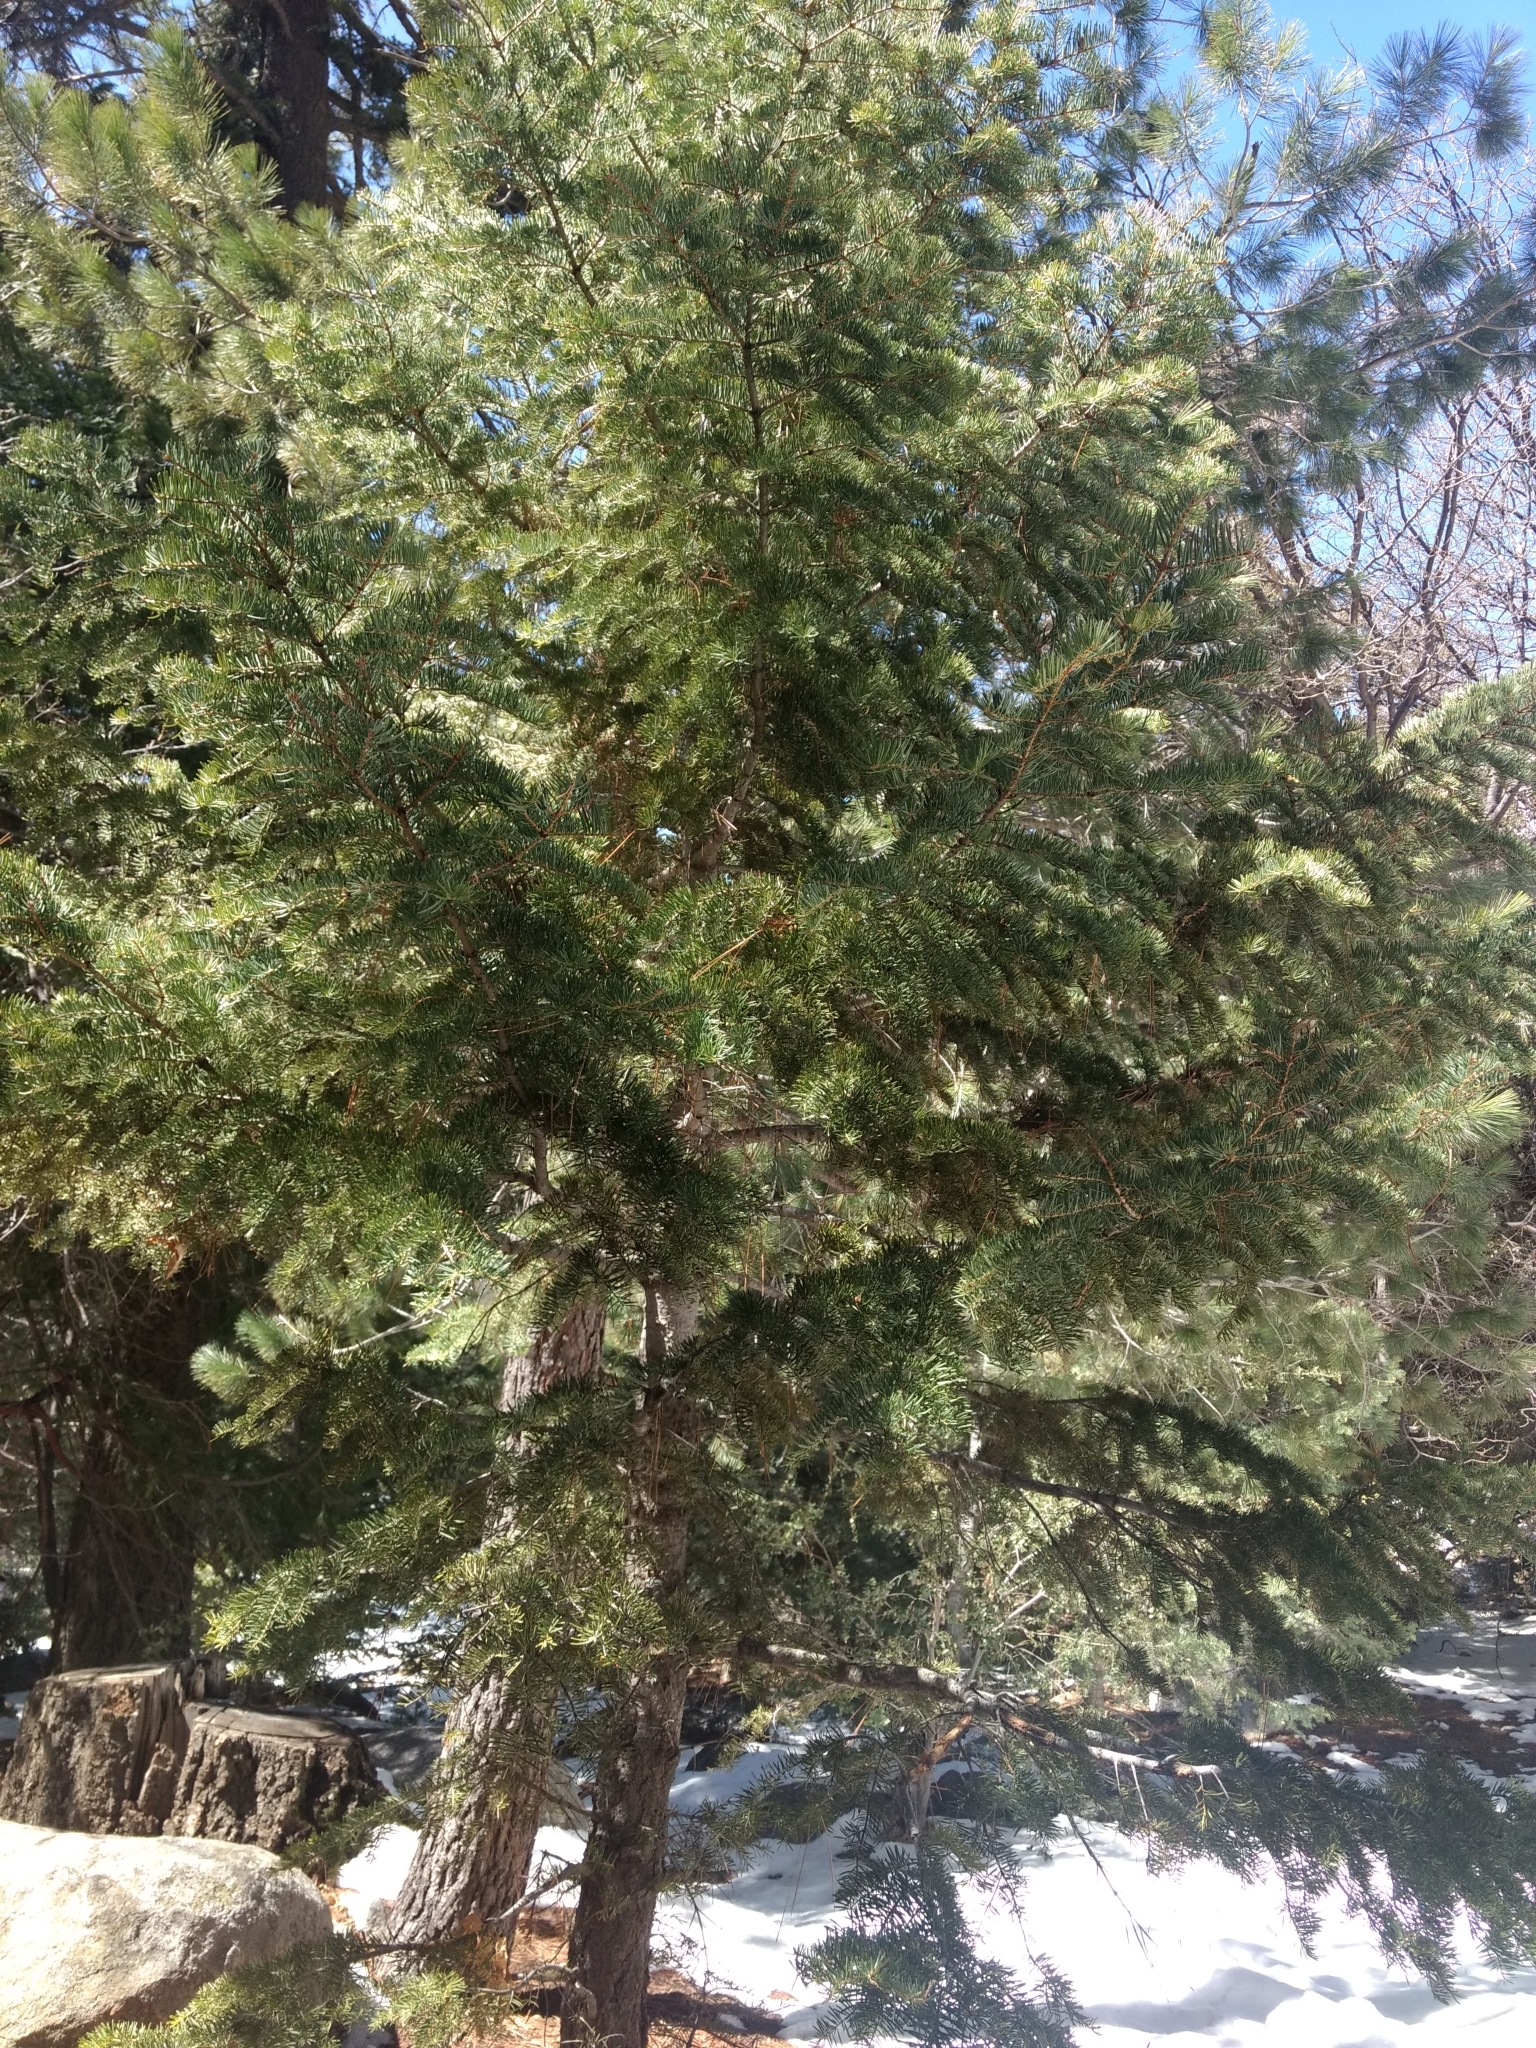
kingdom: Plantae
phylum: Tracheophyta
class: Pinopsida
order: Pinales
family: Pinaceae
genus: Abies
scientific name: Abies concolor
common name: Colorado fir
